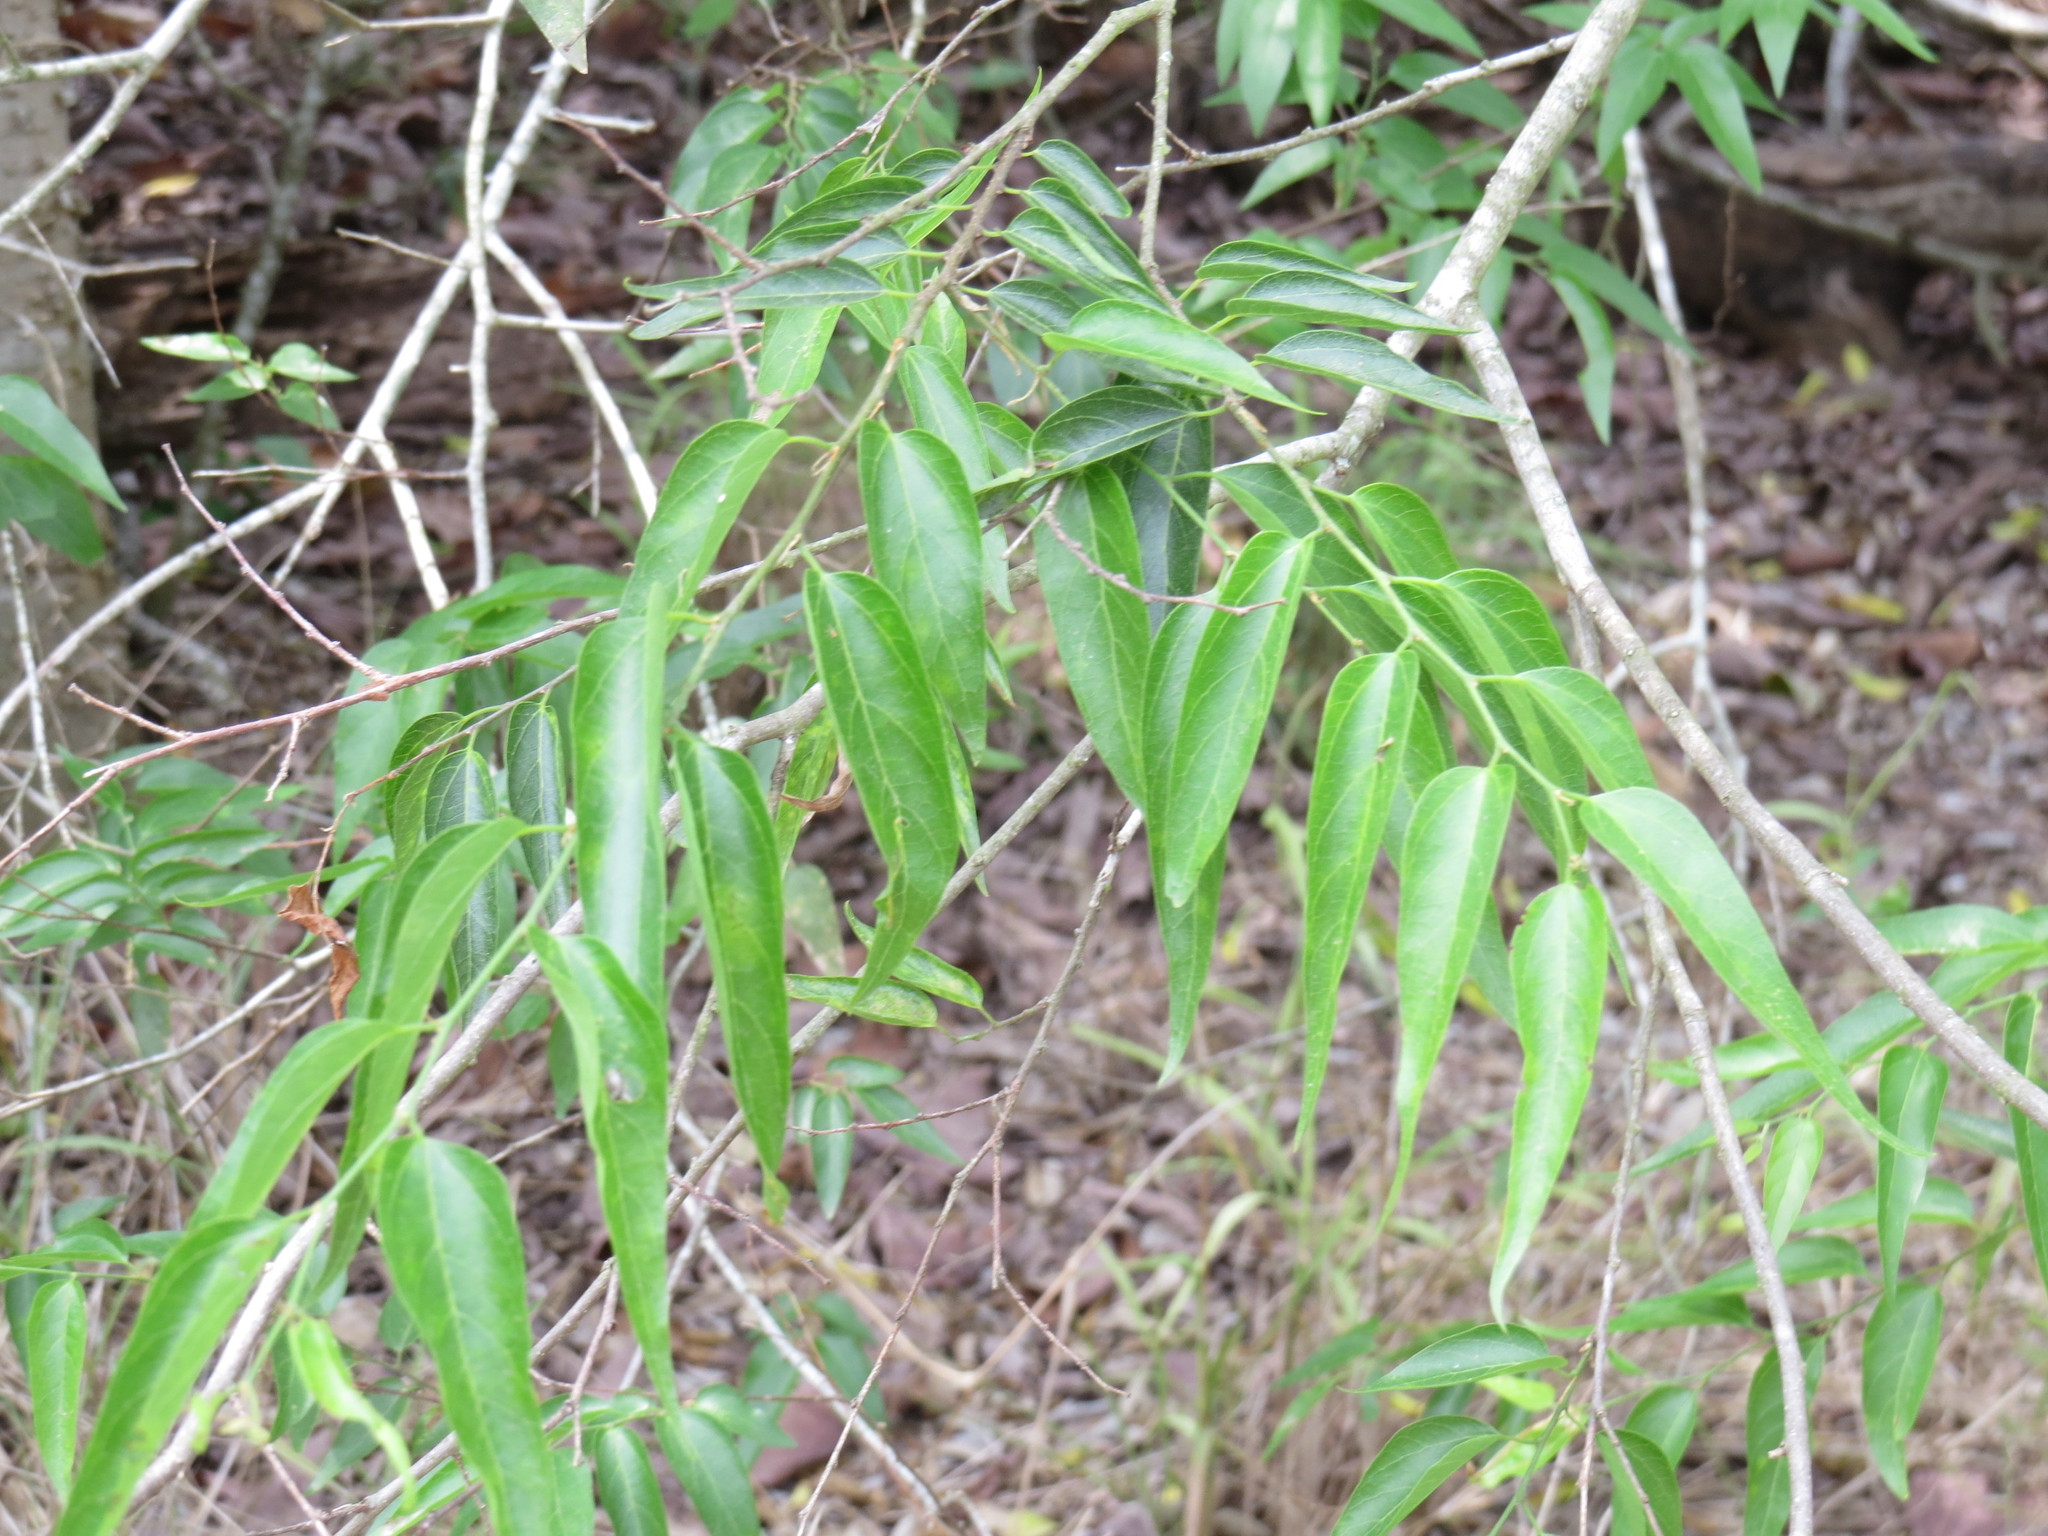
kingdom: Plantae
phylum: Tracheophyta
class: Magnoliopsida
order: Rosales
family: Cannabaceae
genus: Celtis
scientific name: Celtis laevigata
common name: Sugarberry
